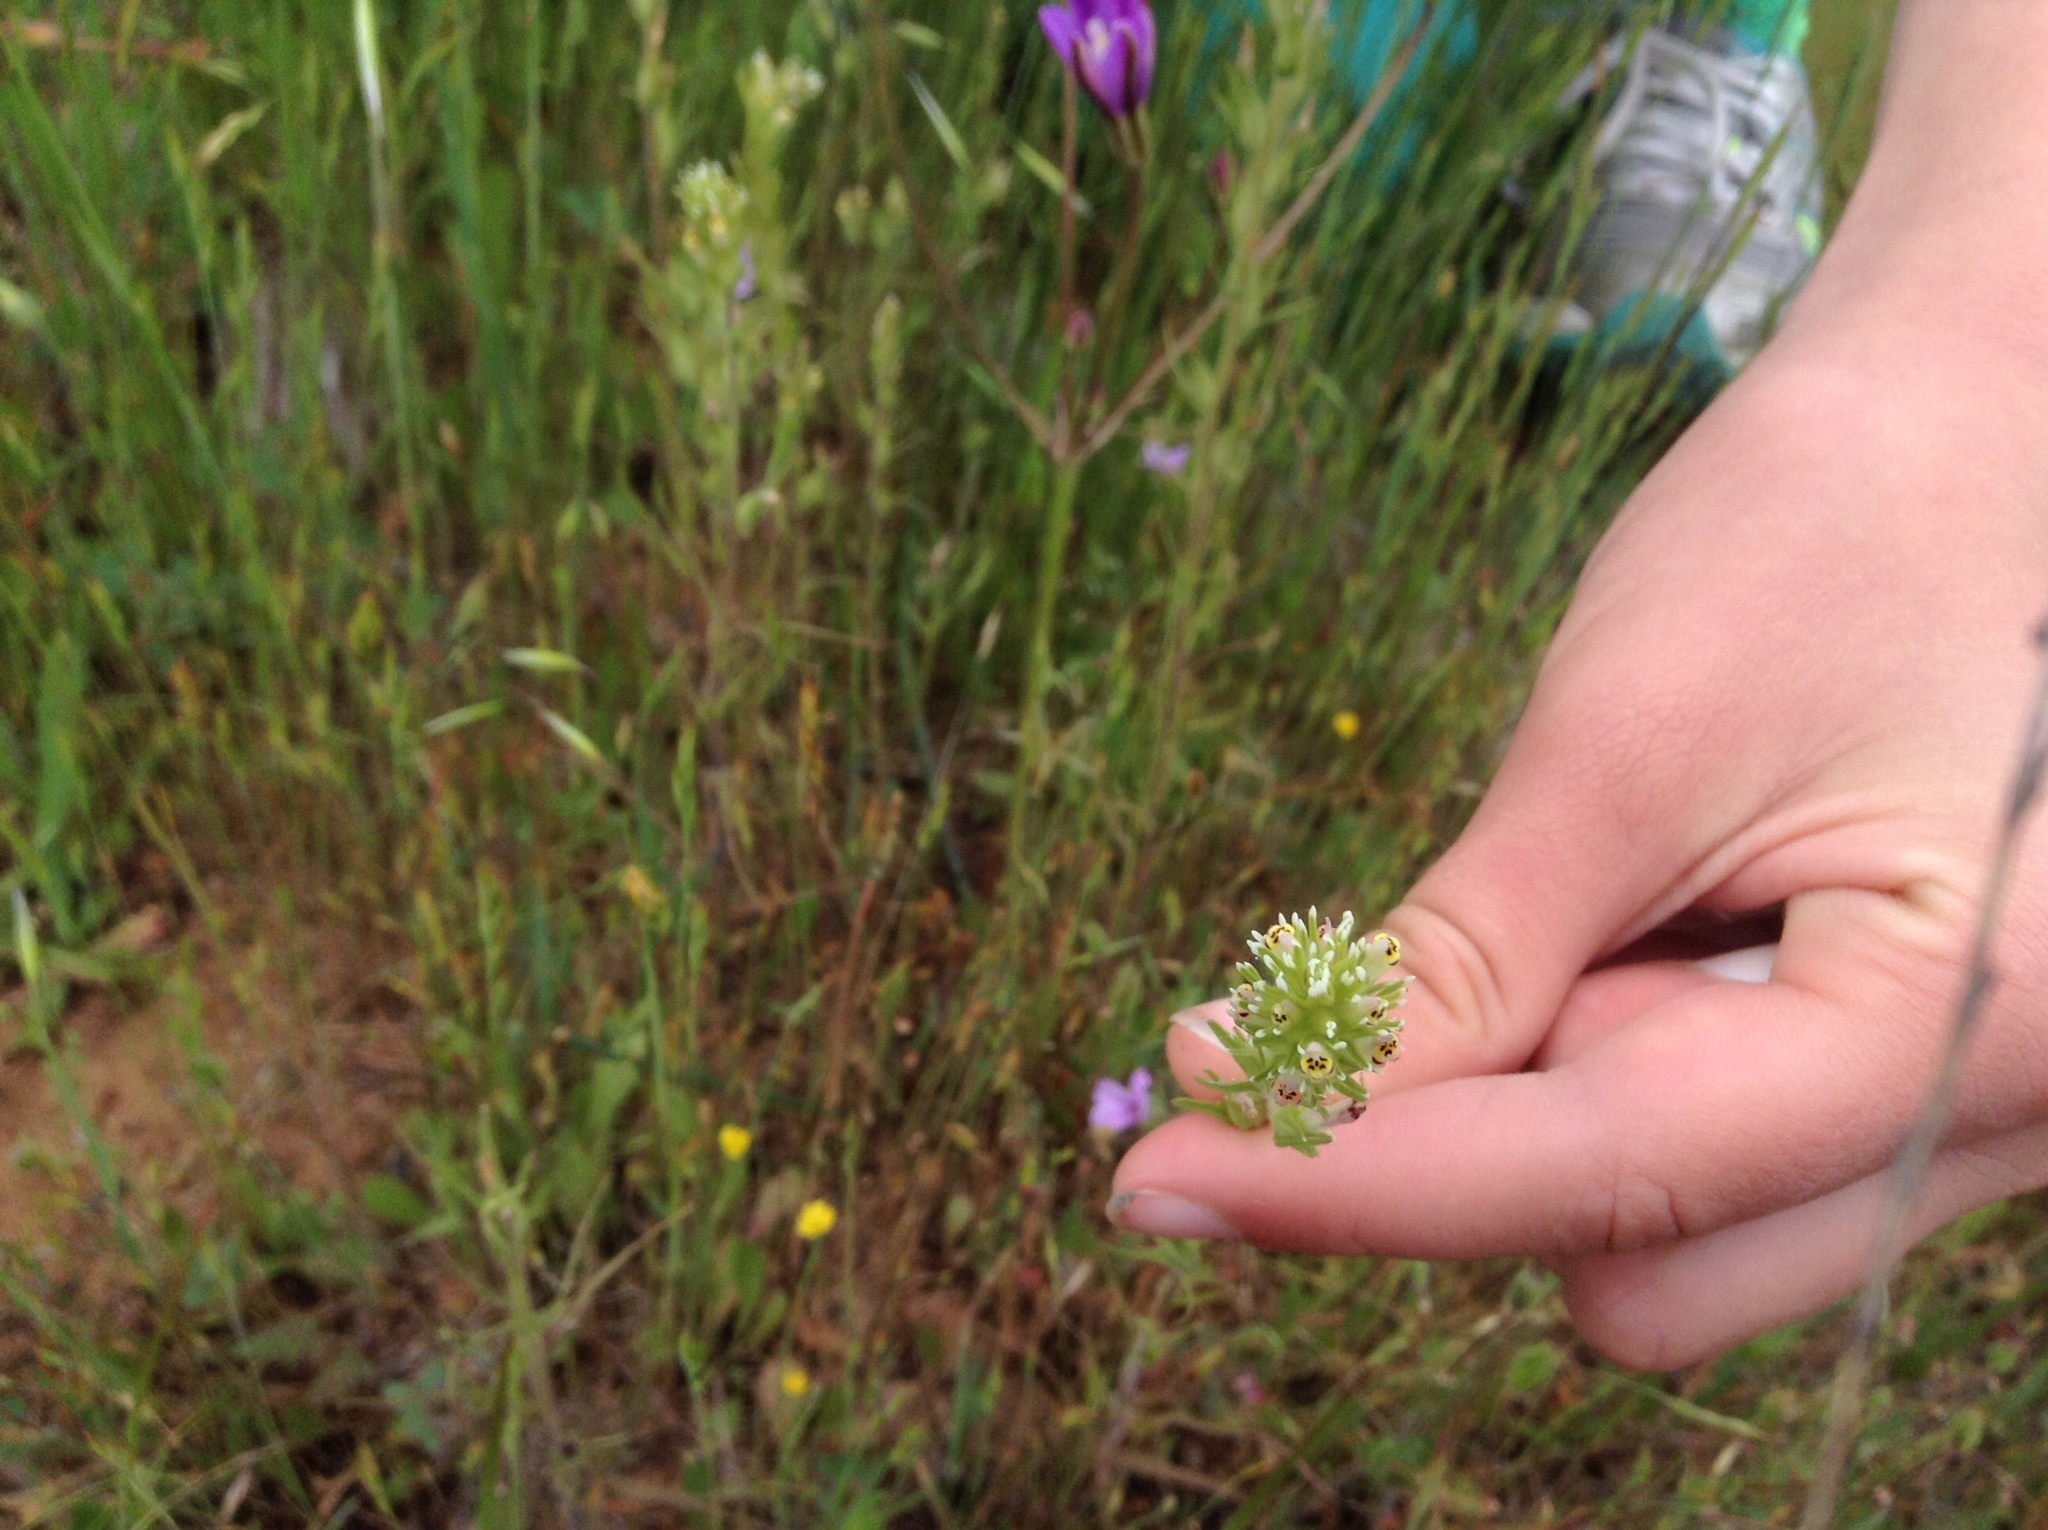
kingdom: Plantae
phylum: Tracheophyta
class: Magnoliopsida
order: Lamiales
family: Orobanchaceae
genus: Castilleja
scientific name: Castilleja attenuata
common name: Valley tassels
